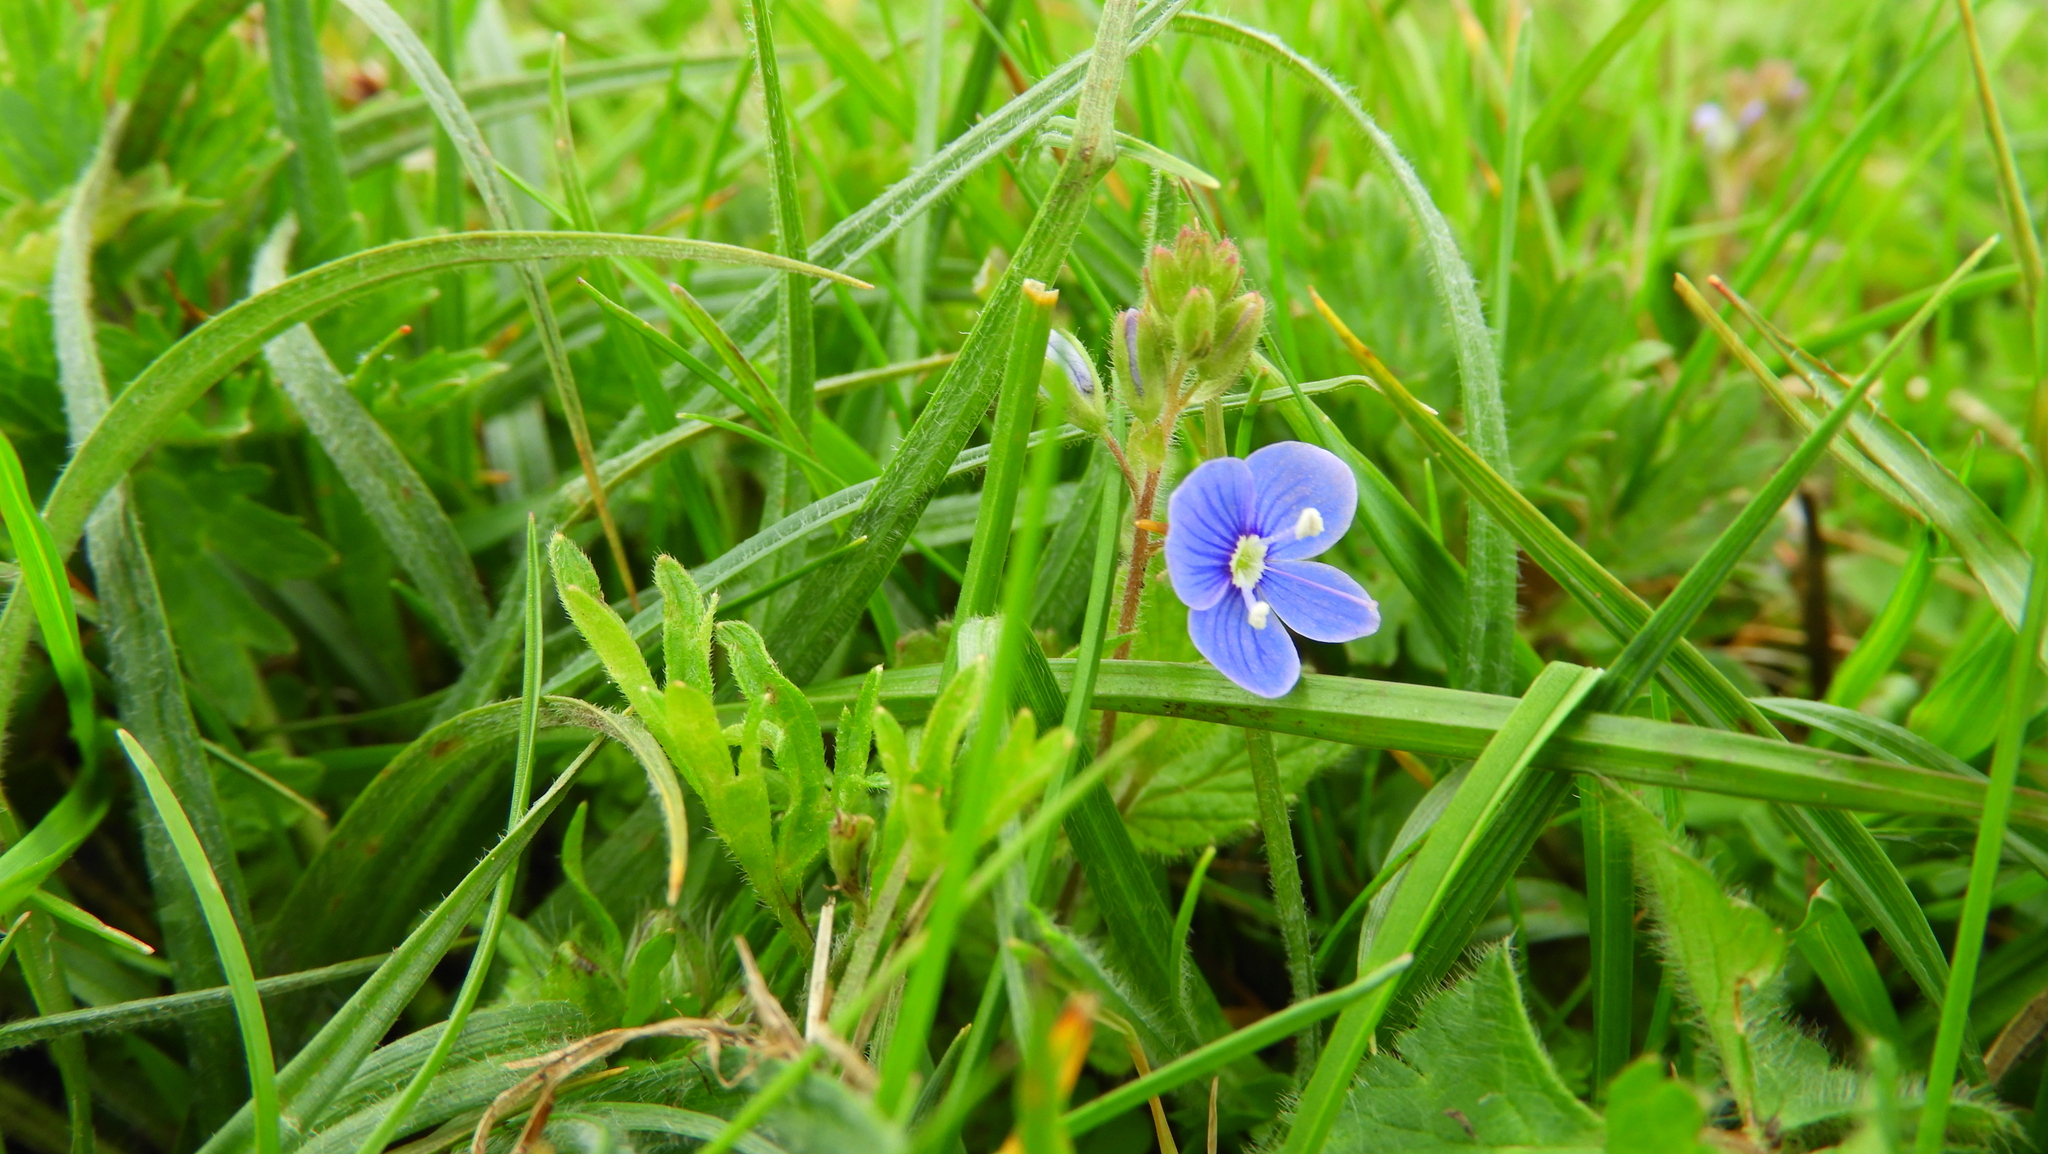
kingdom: Plantae
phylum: Tracheophyta
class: Magnoliopsida
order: Lamiales
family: Plantaginaceae
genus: Veronica
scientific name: Veronica chamaedrys
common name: Germander speedwell
